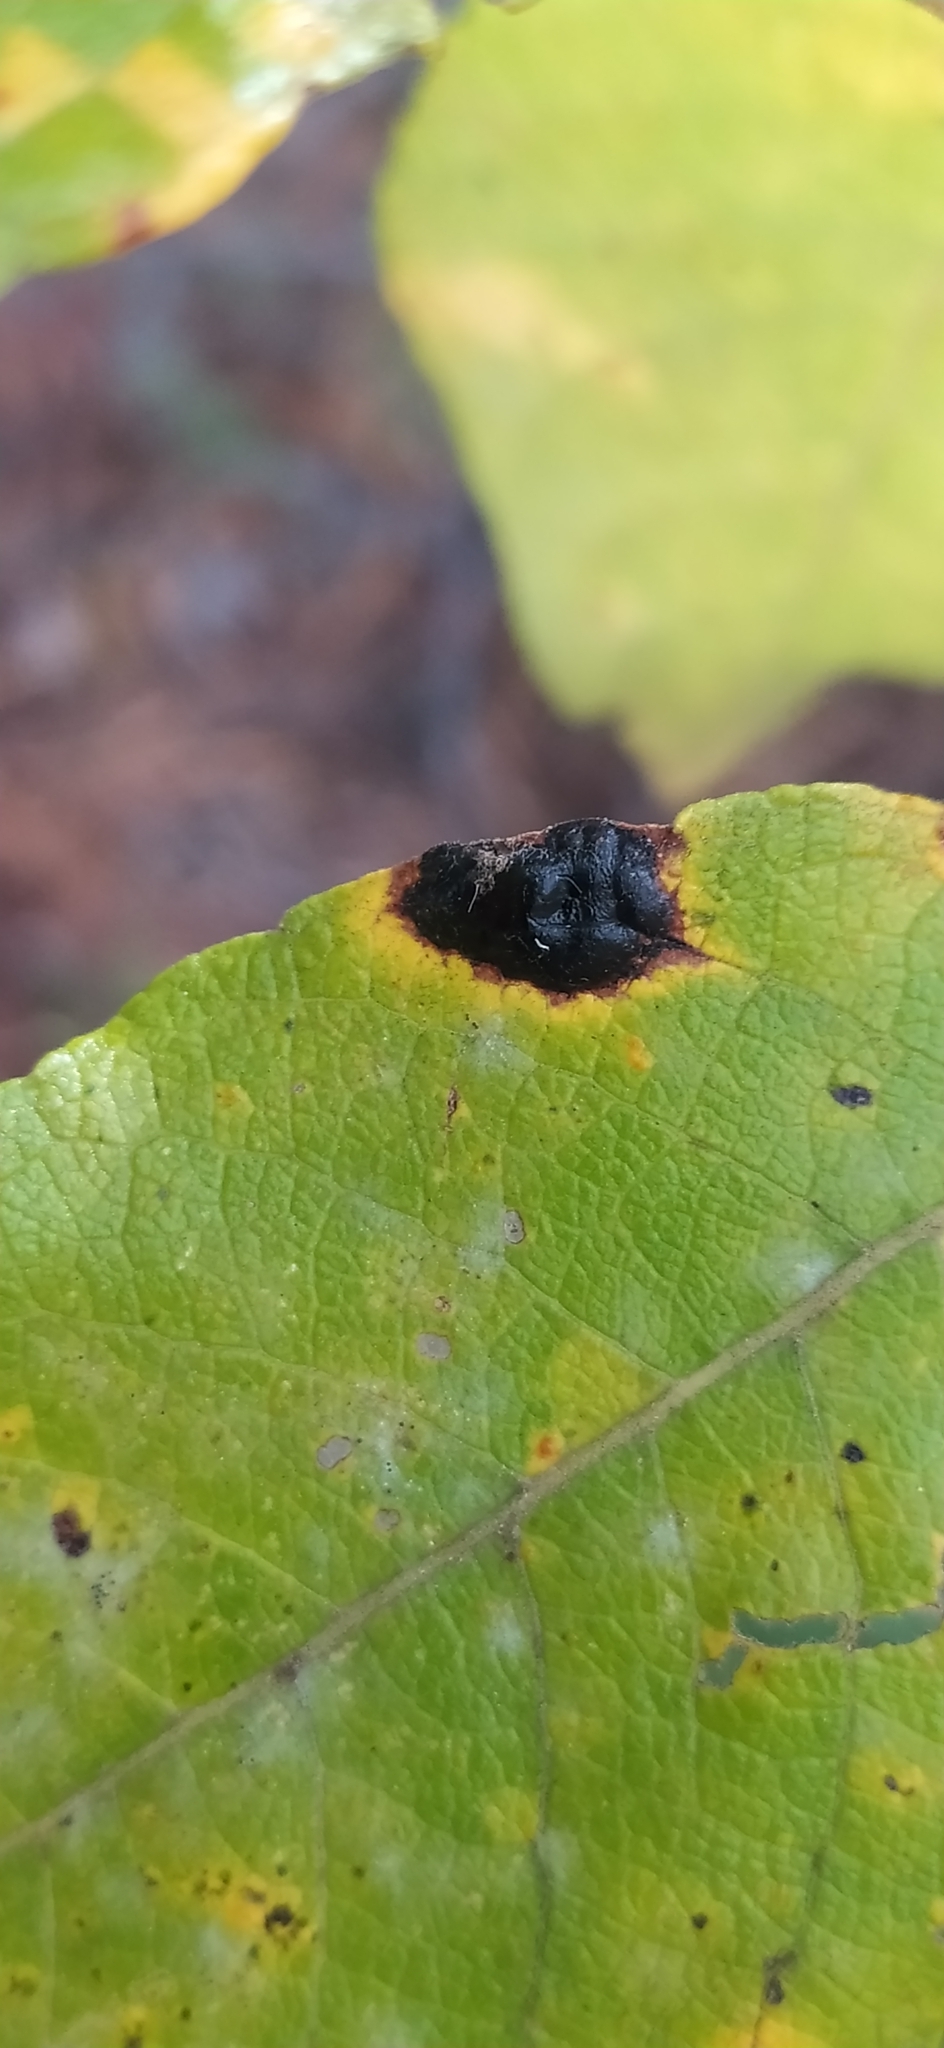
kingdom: Fungi
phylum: Ascomycota
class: Leotiomycetes
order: Rhytismatales
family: Rhytismataceae
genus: Rhytisma
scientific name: Rhytisma salicinum
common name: Willow tarspot
